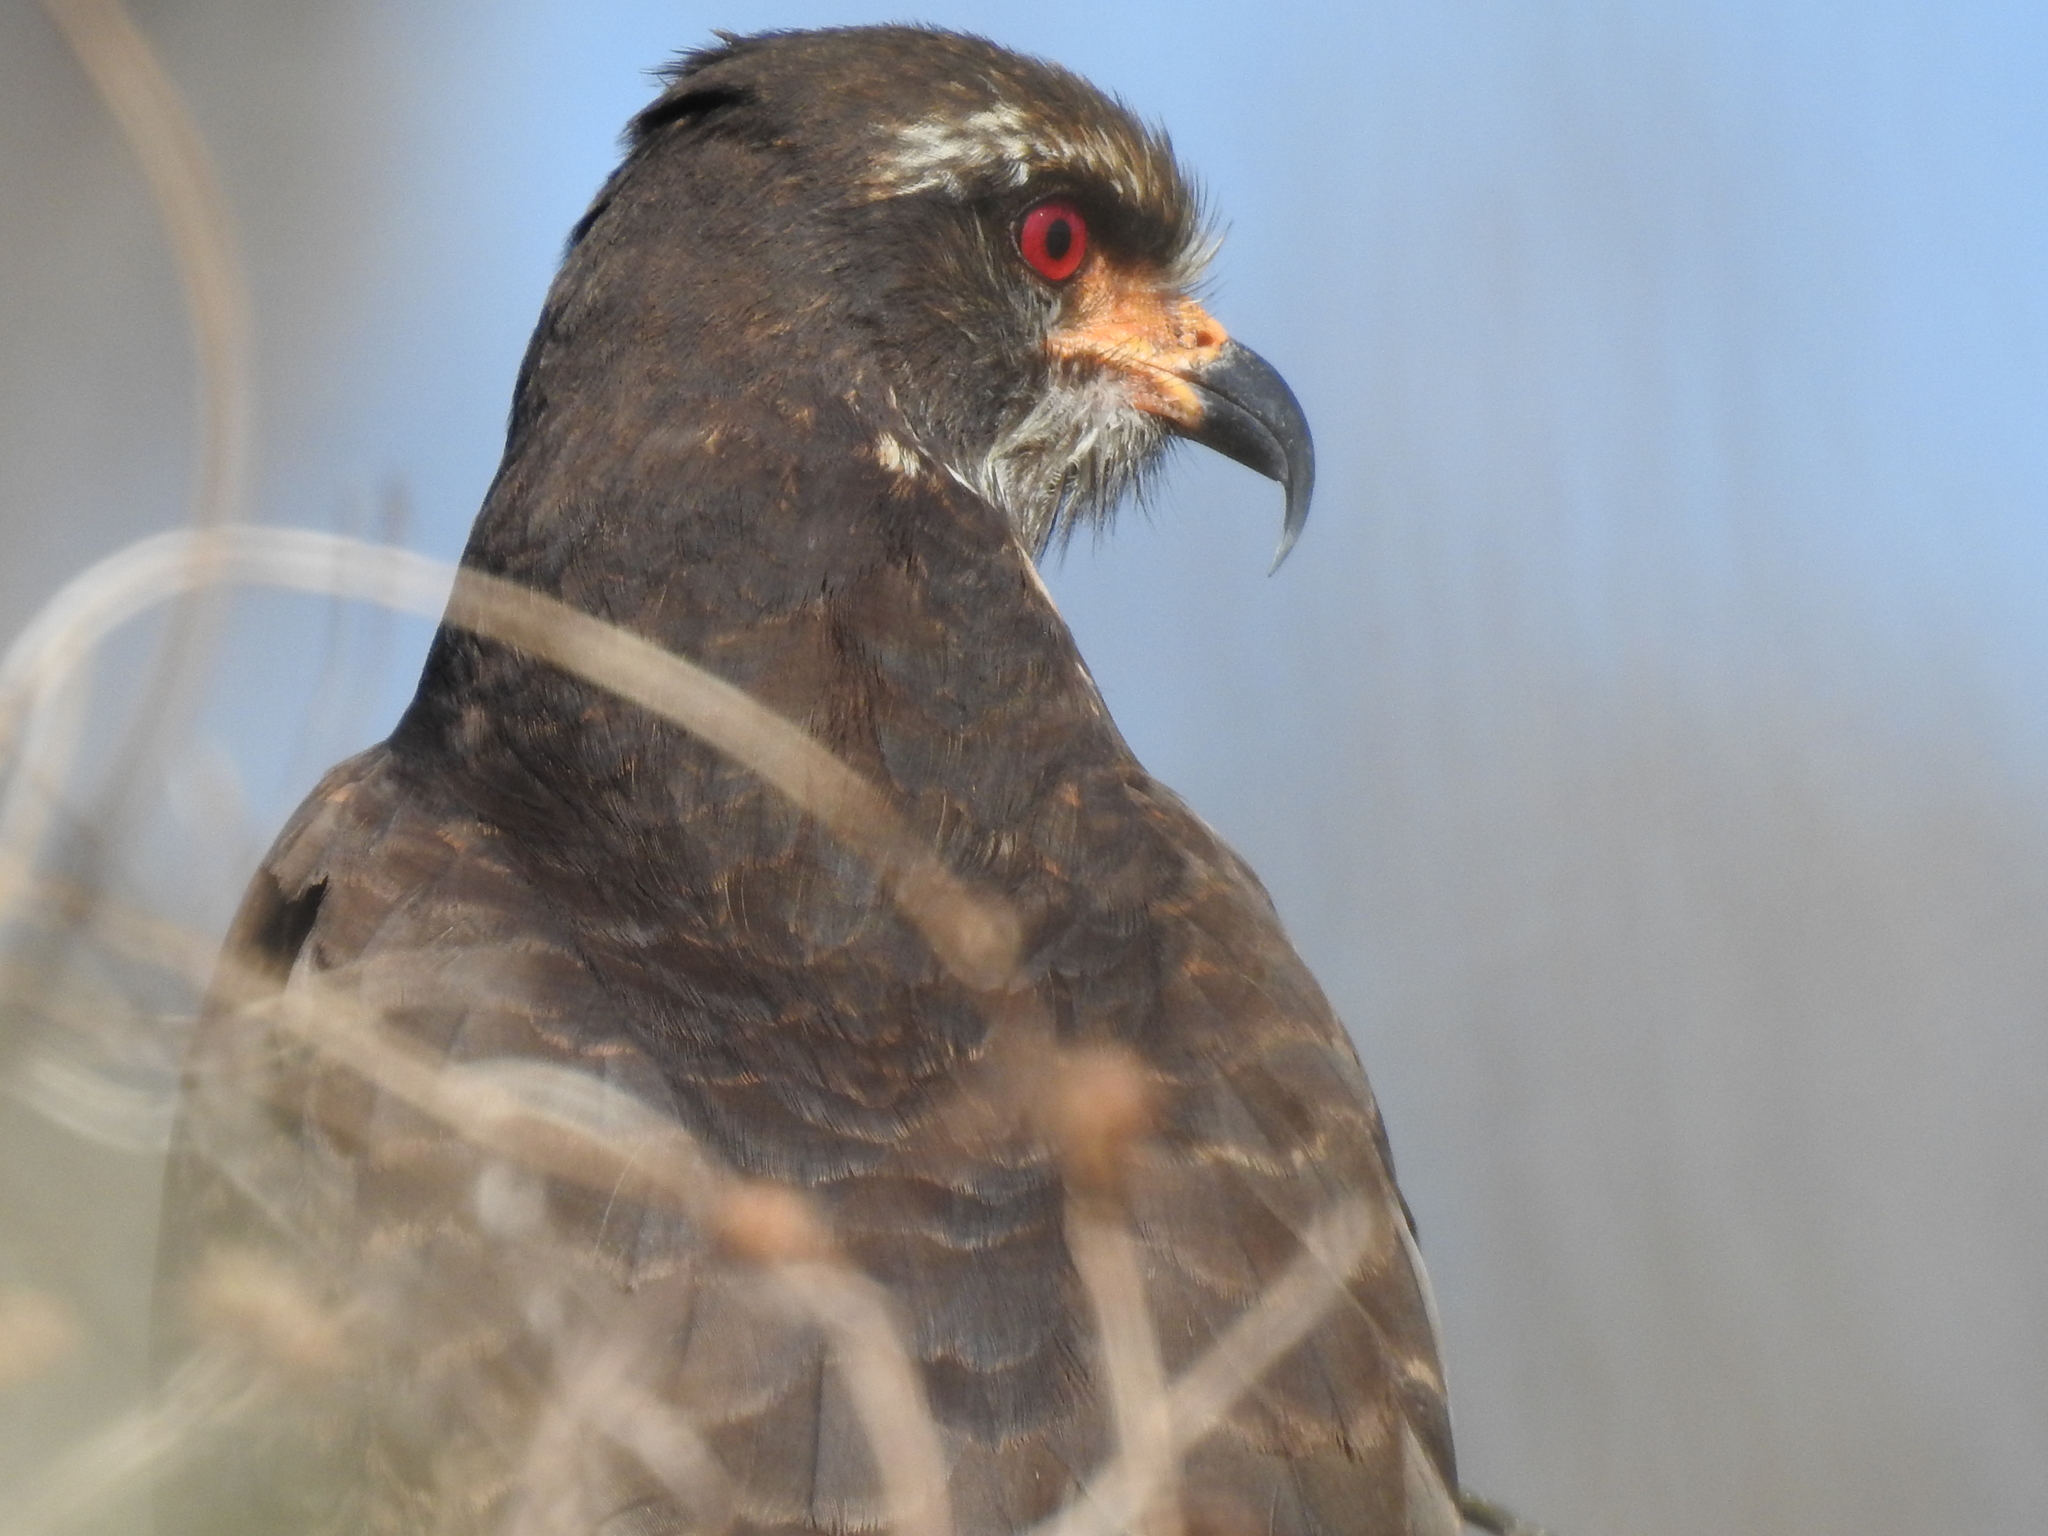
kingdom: Animalia
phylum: Chordata
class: Aves
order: Accipitriformes
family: Accipitridae
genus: Rostrhamus
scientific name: Rostrhamus sociabilis
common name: Snail kite
